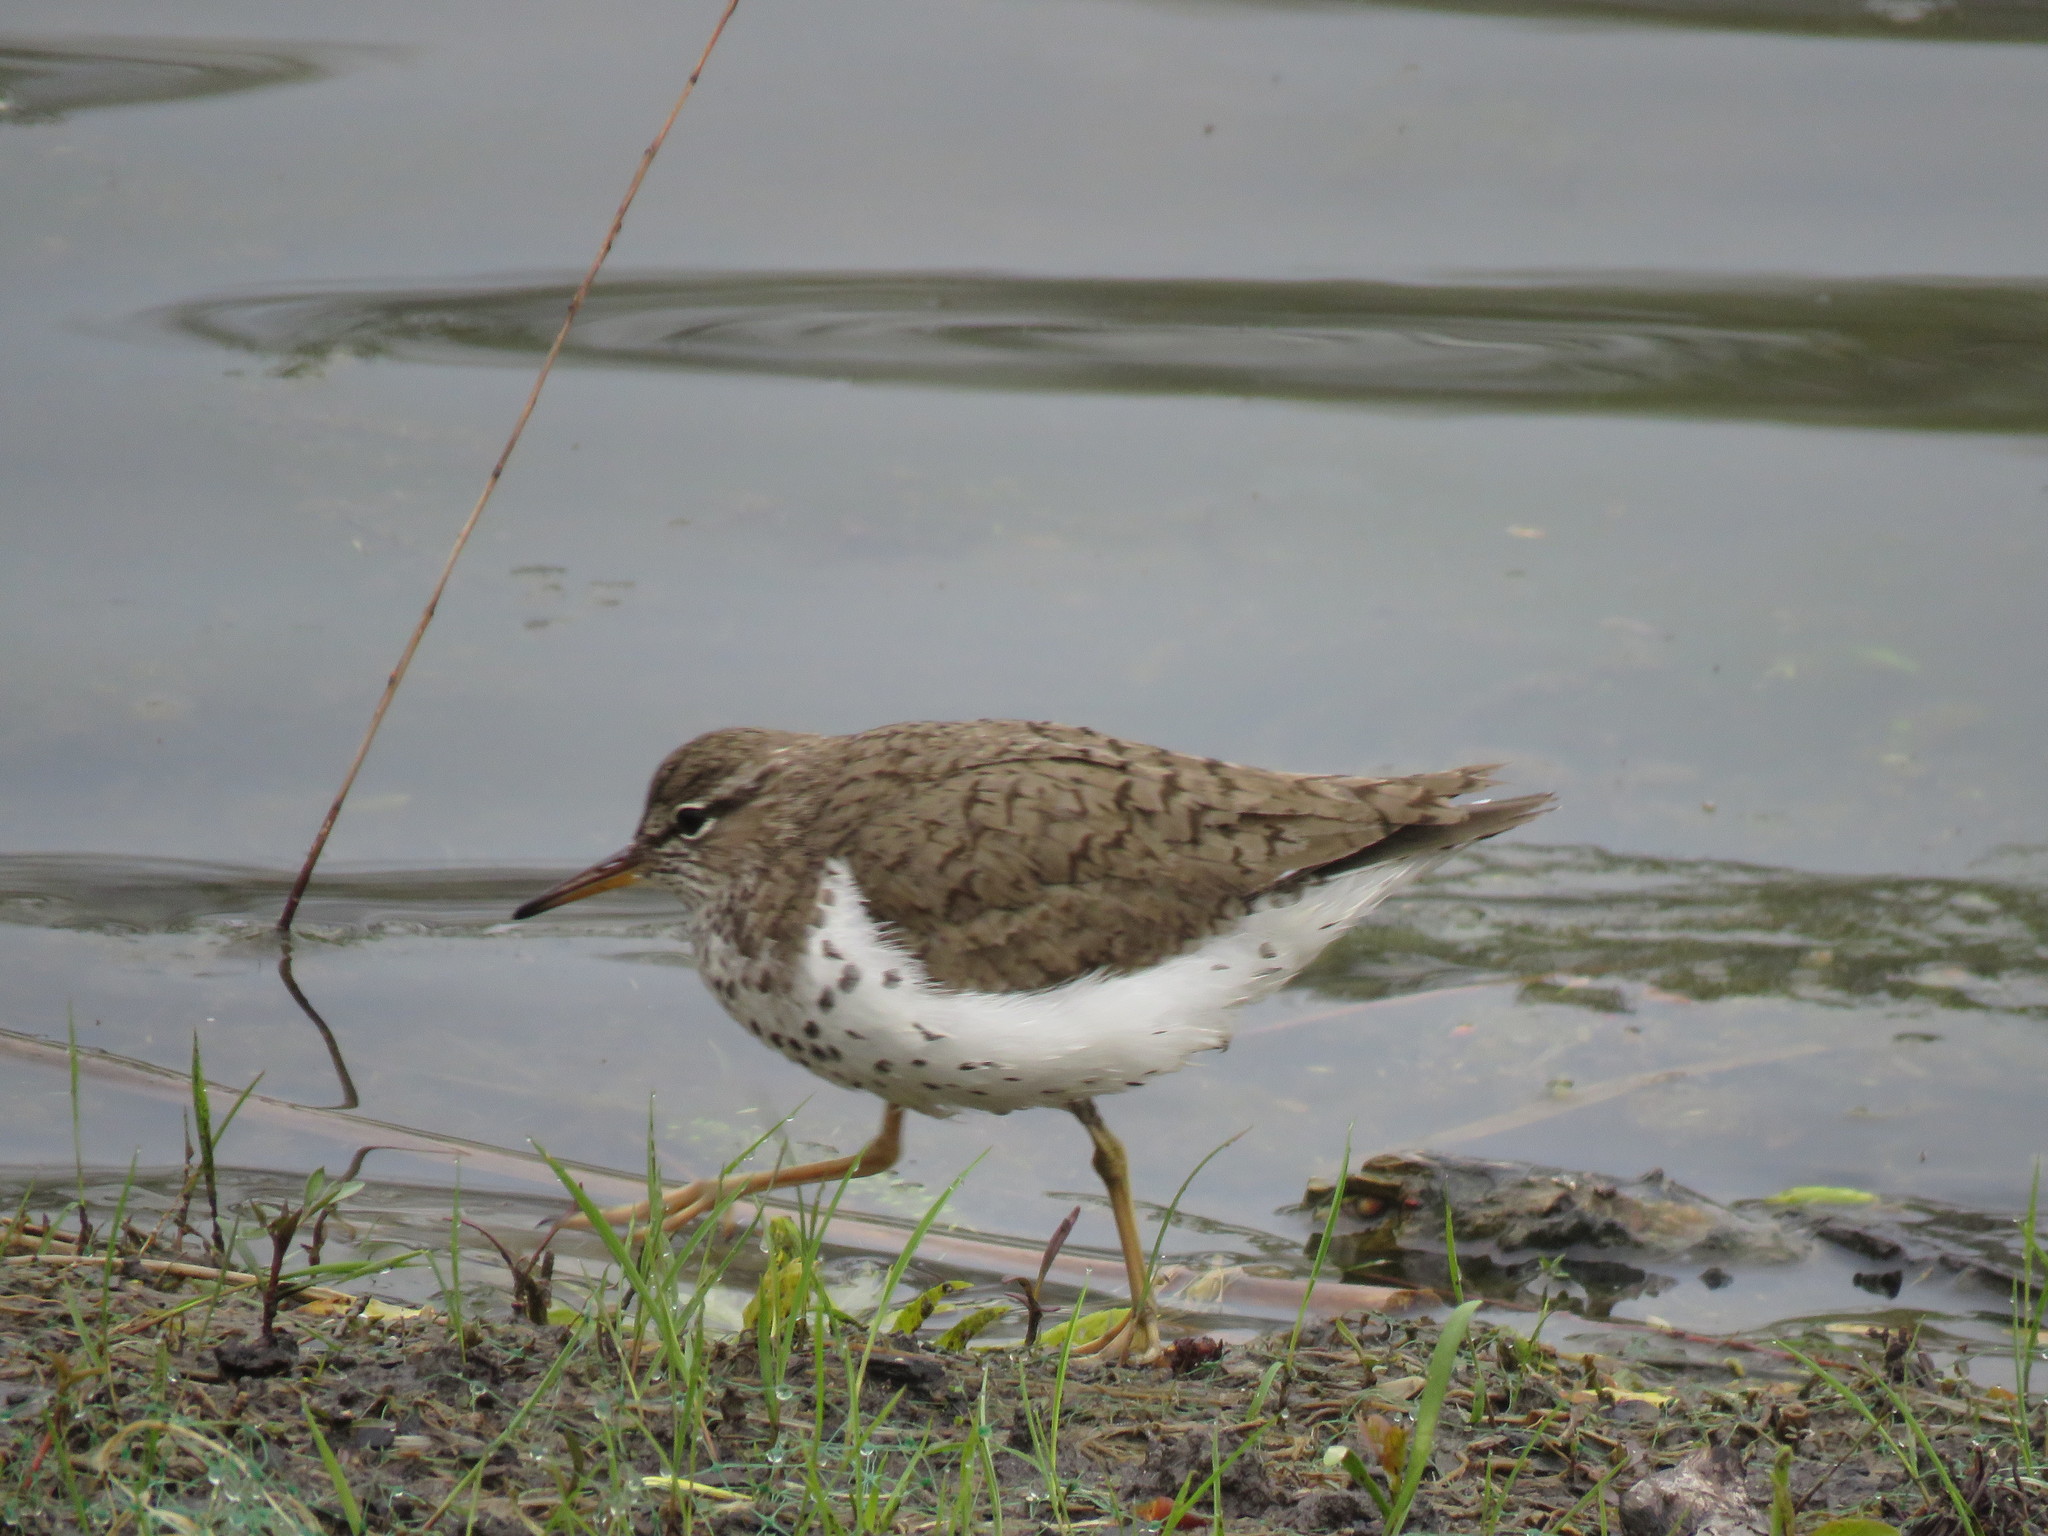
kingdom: Animalia
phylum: Chordata
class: Aves
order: Charadriiformes
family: Scolopacidae
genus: Actitis
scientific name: Actitis macularius
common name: Spotted sandpiper
